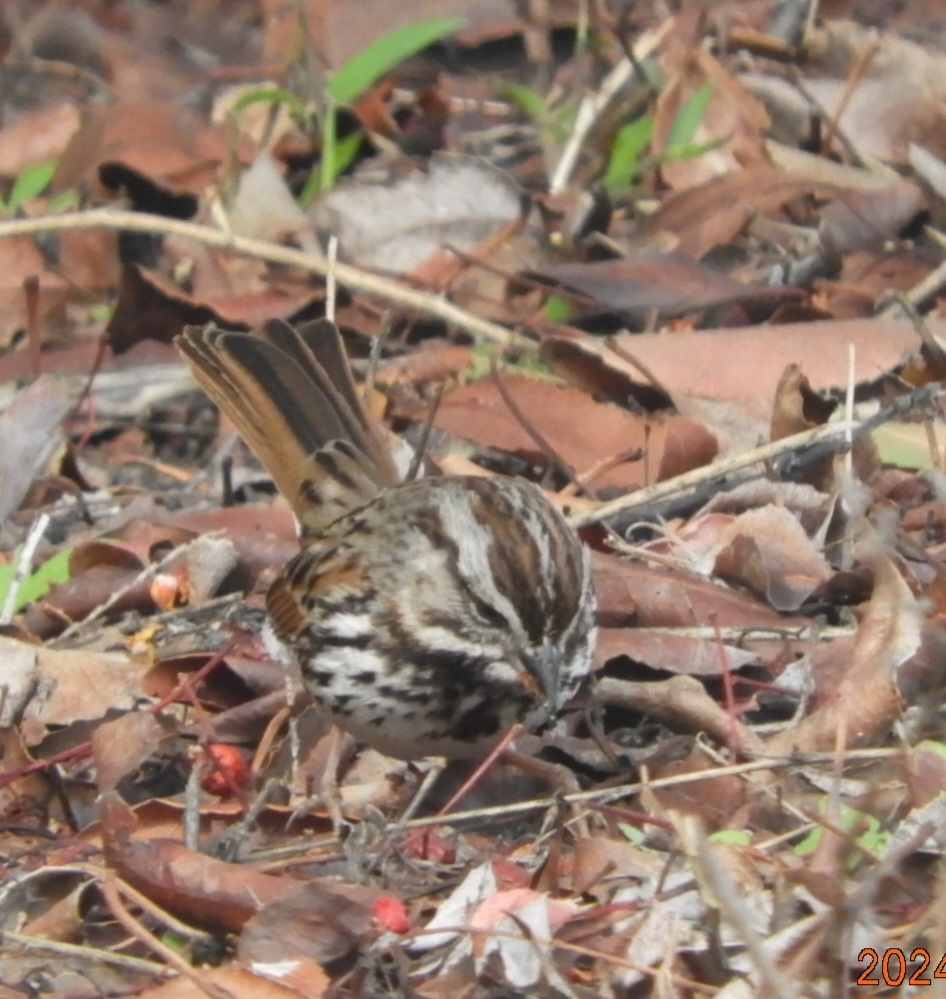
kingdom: Animalia
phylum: Chordata
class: Aves
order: Passeriformes
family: Passerellidae
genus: Melospiza
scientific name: Melospiza melodia
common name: Song sparrow
